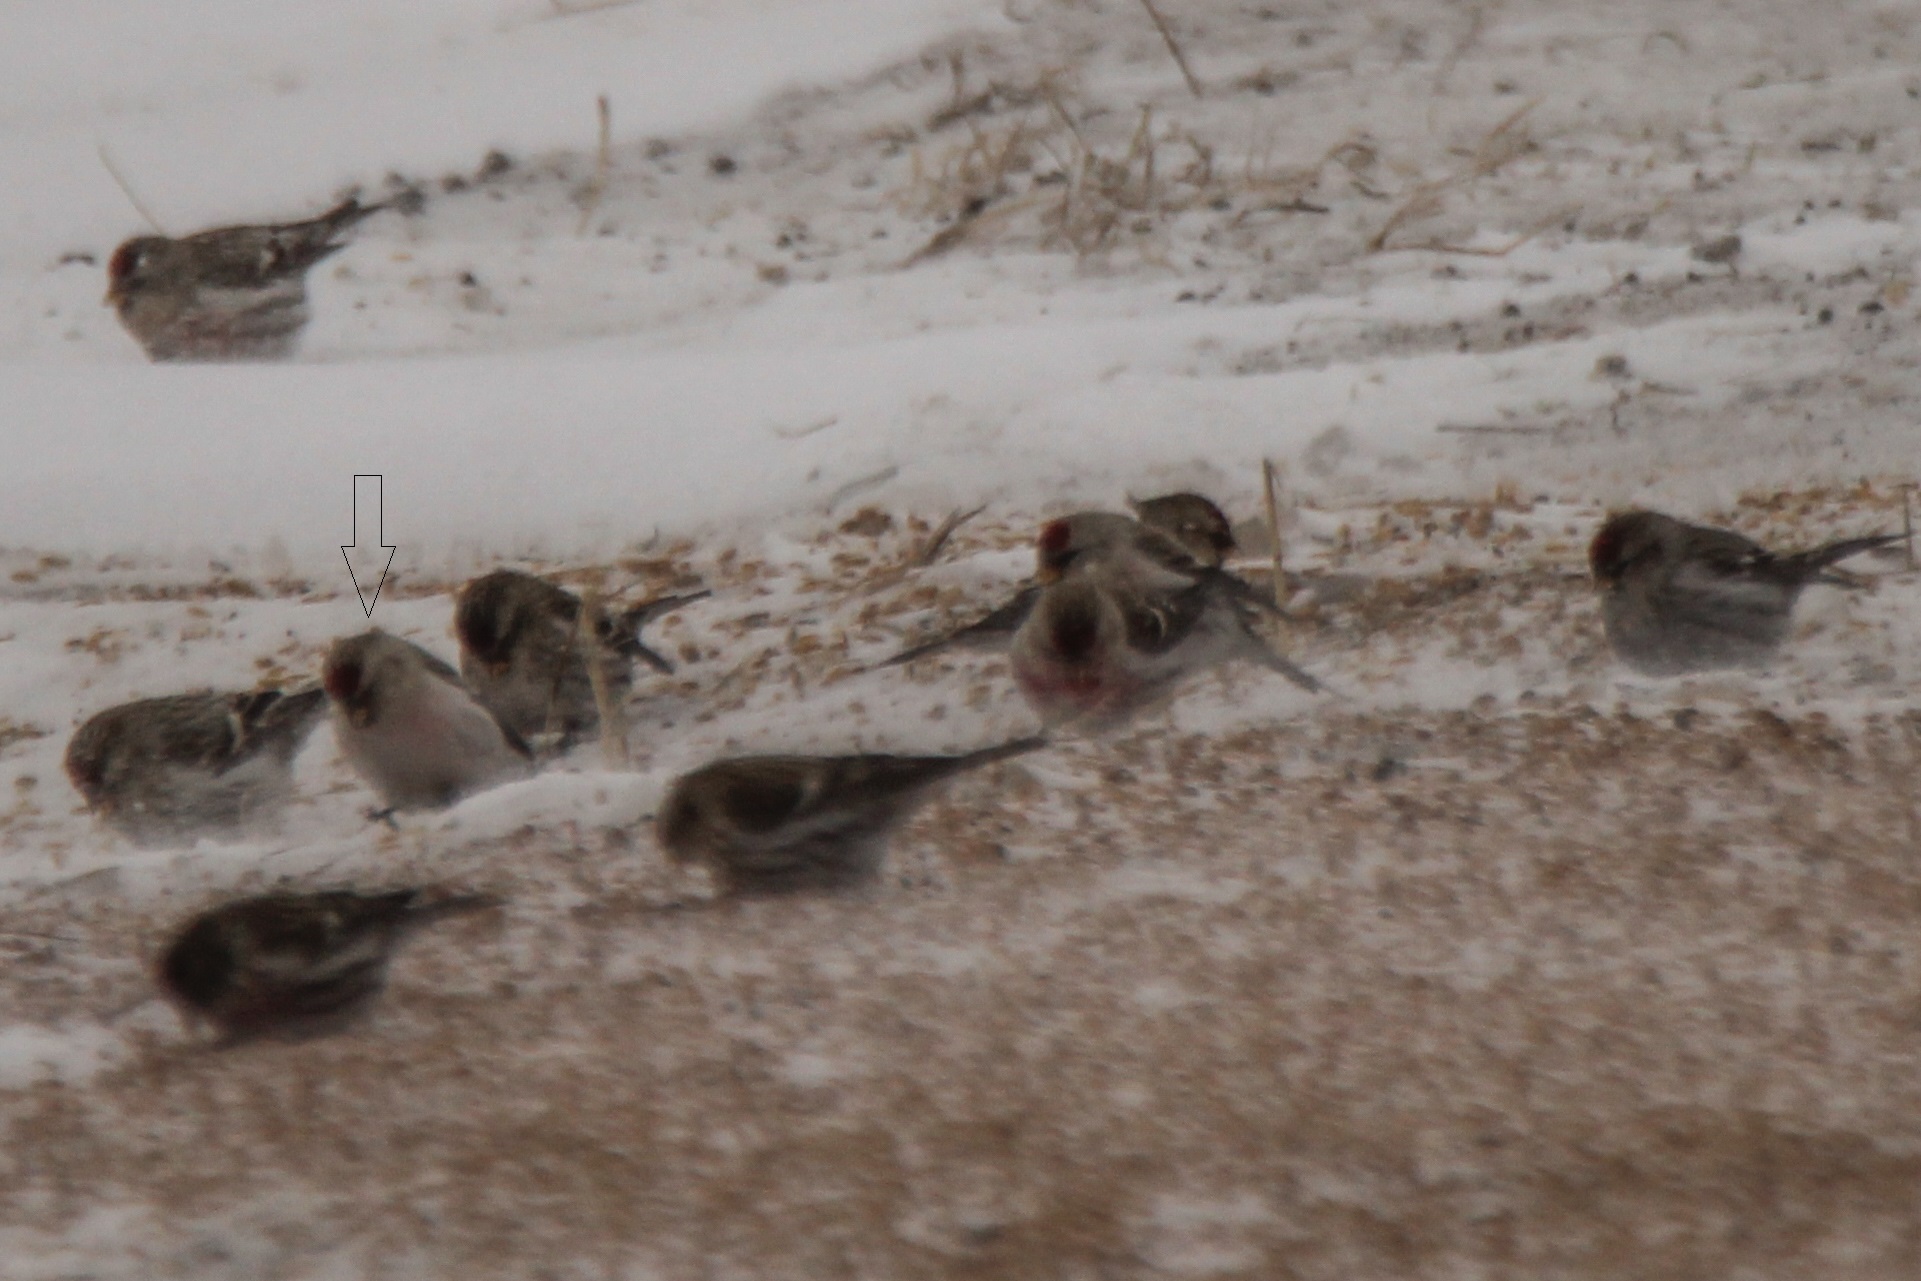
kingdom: Animalia
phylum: Chordata
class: Aves
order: Passeriformes
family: Fringillidae
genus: Acanthis
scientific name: Acanthis hornemanni
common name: Arctic redpoll
